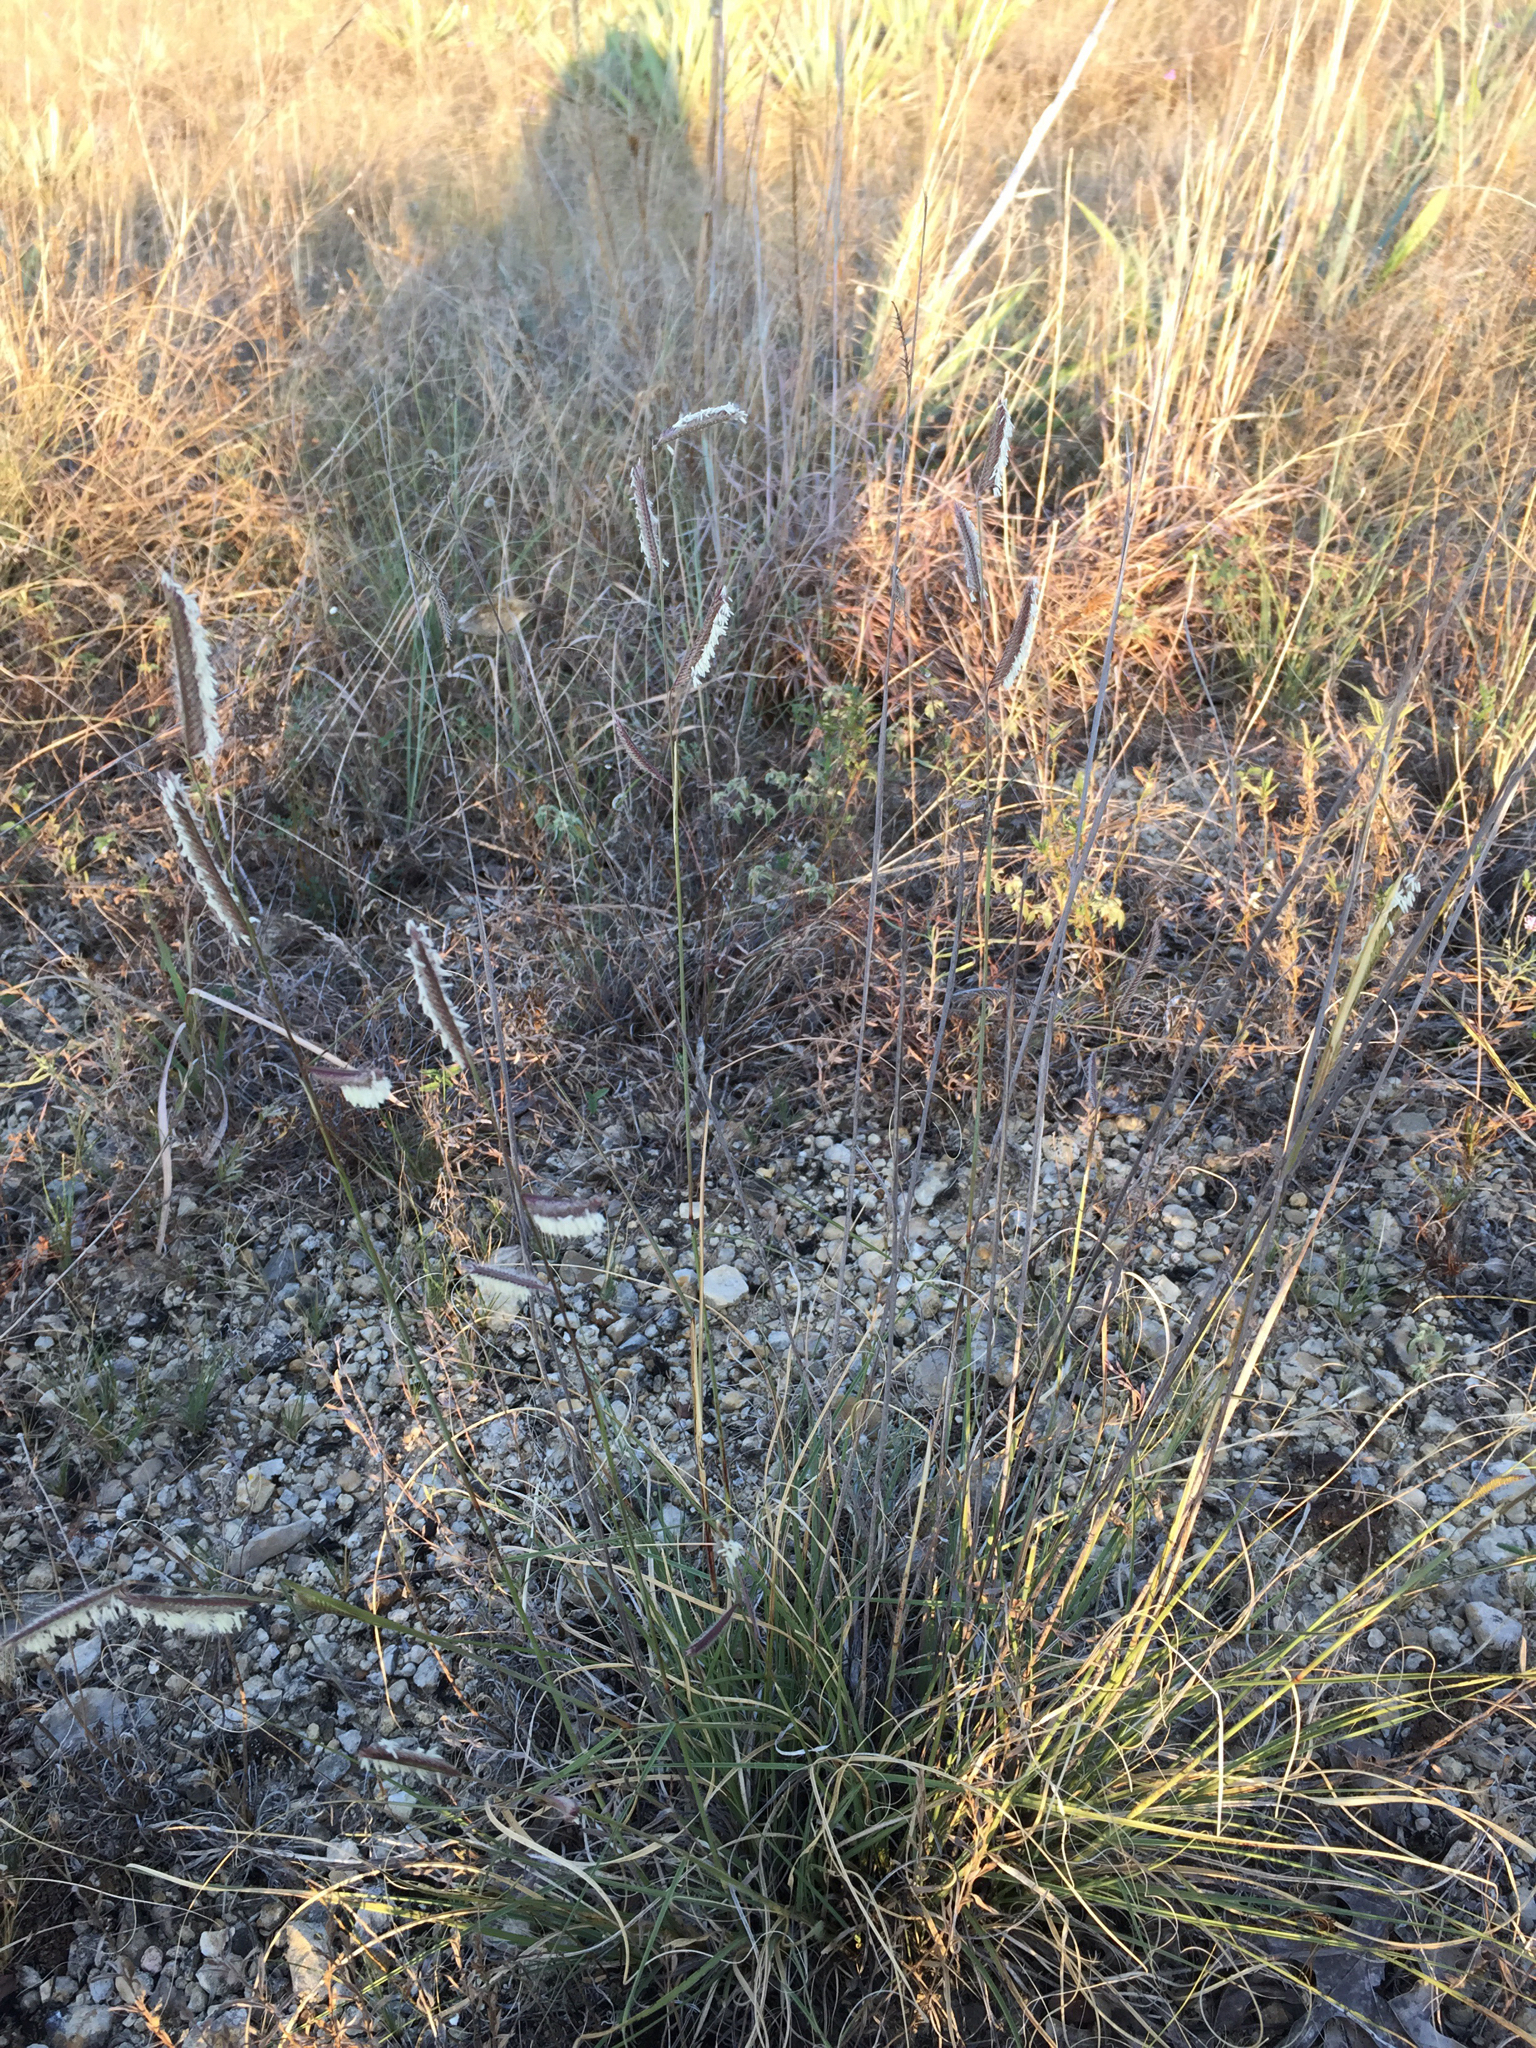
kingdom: Plantae
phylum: Tracheophyta
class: Liliopsida
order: Poales
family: Poaceae
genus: Bouteloua
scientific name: Bouteloua hirsuta
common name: Hairy grama
